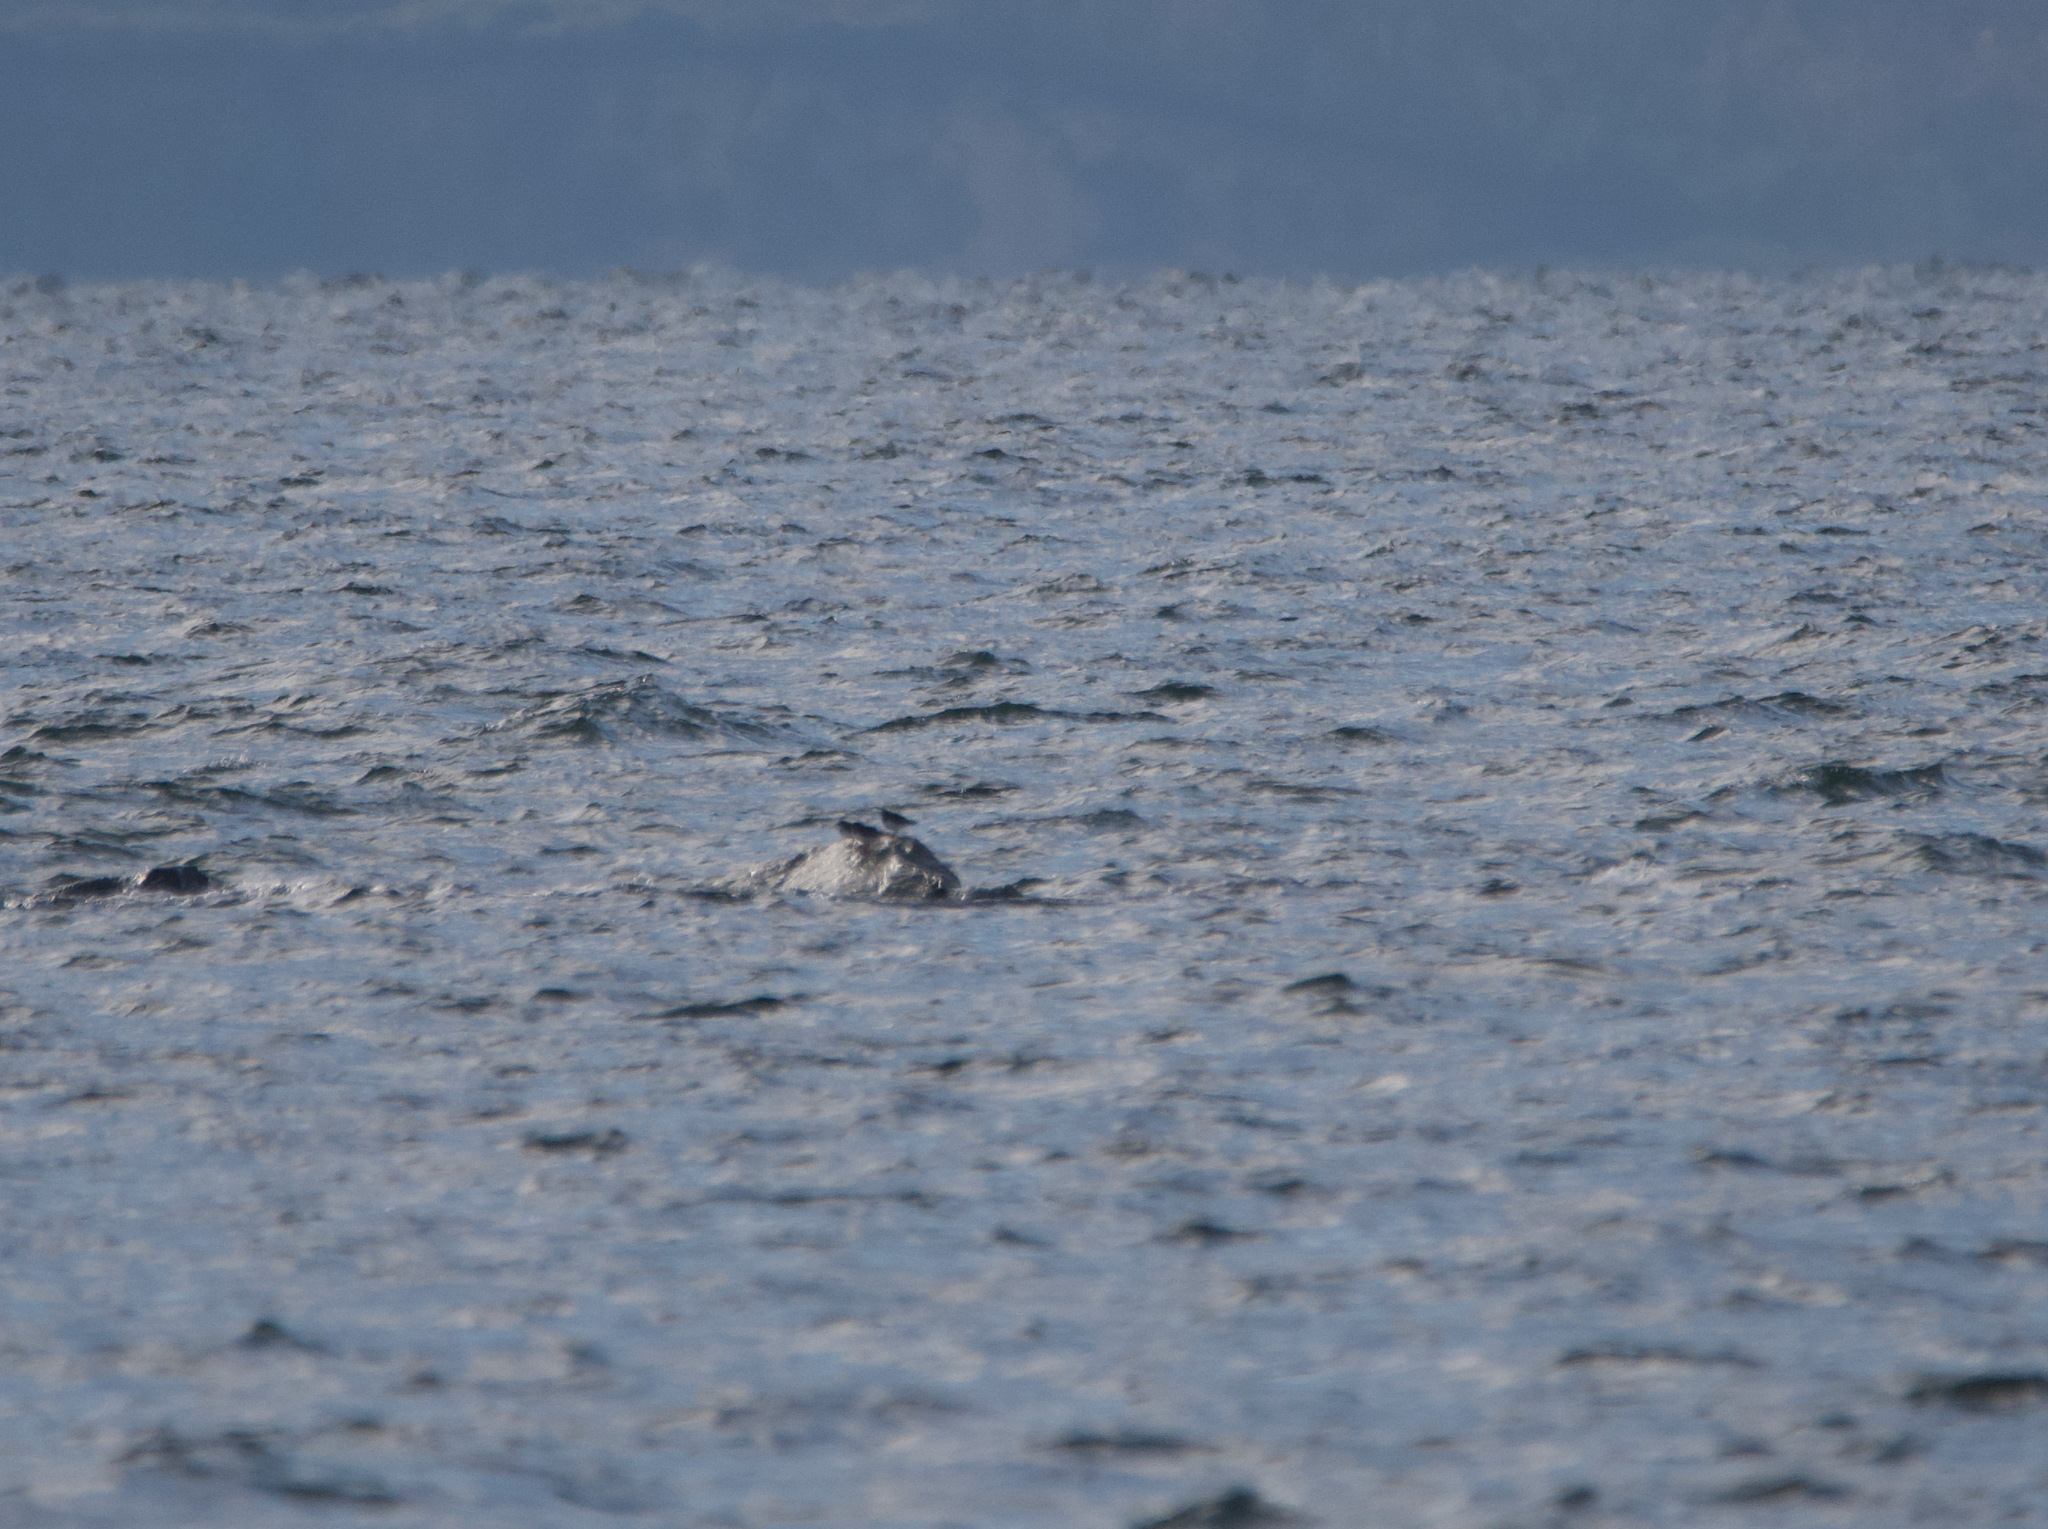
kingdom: Animalia
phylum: Chordata
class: Aves
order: Charadriiformes
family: Scolopacidae
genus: Calidris
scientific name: Calidris maritima
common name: Purple sandpiper
